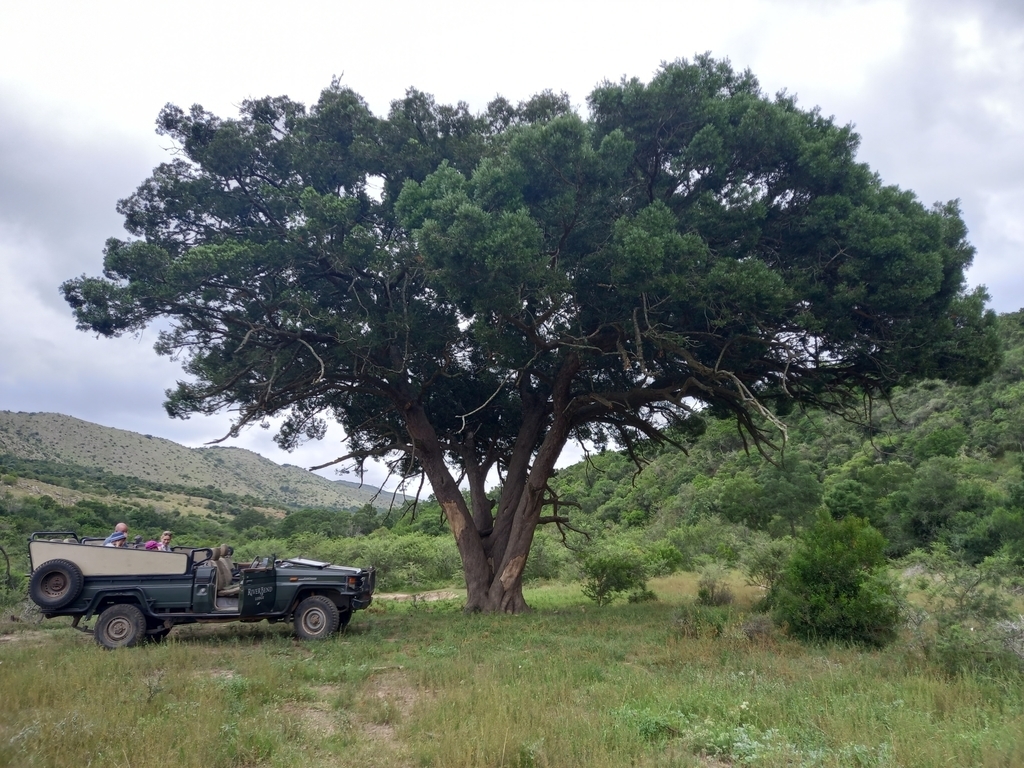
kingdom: Plantae
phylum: Tracheophyta
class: Pinopsida
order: Pinales
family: Podocarpaceae
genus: Afrocarpus
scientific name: Afrocarpus falcatus
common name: Bastard yellowwood
